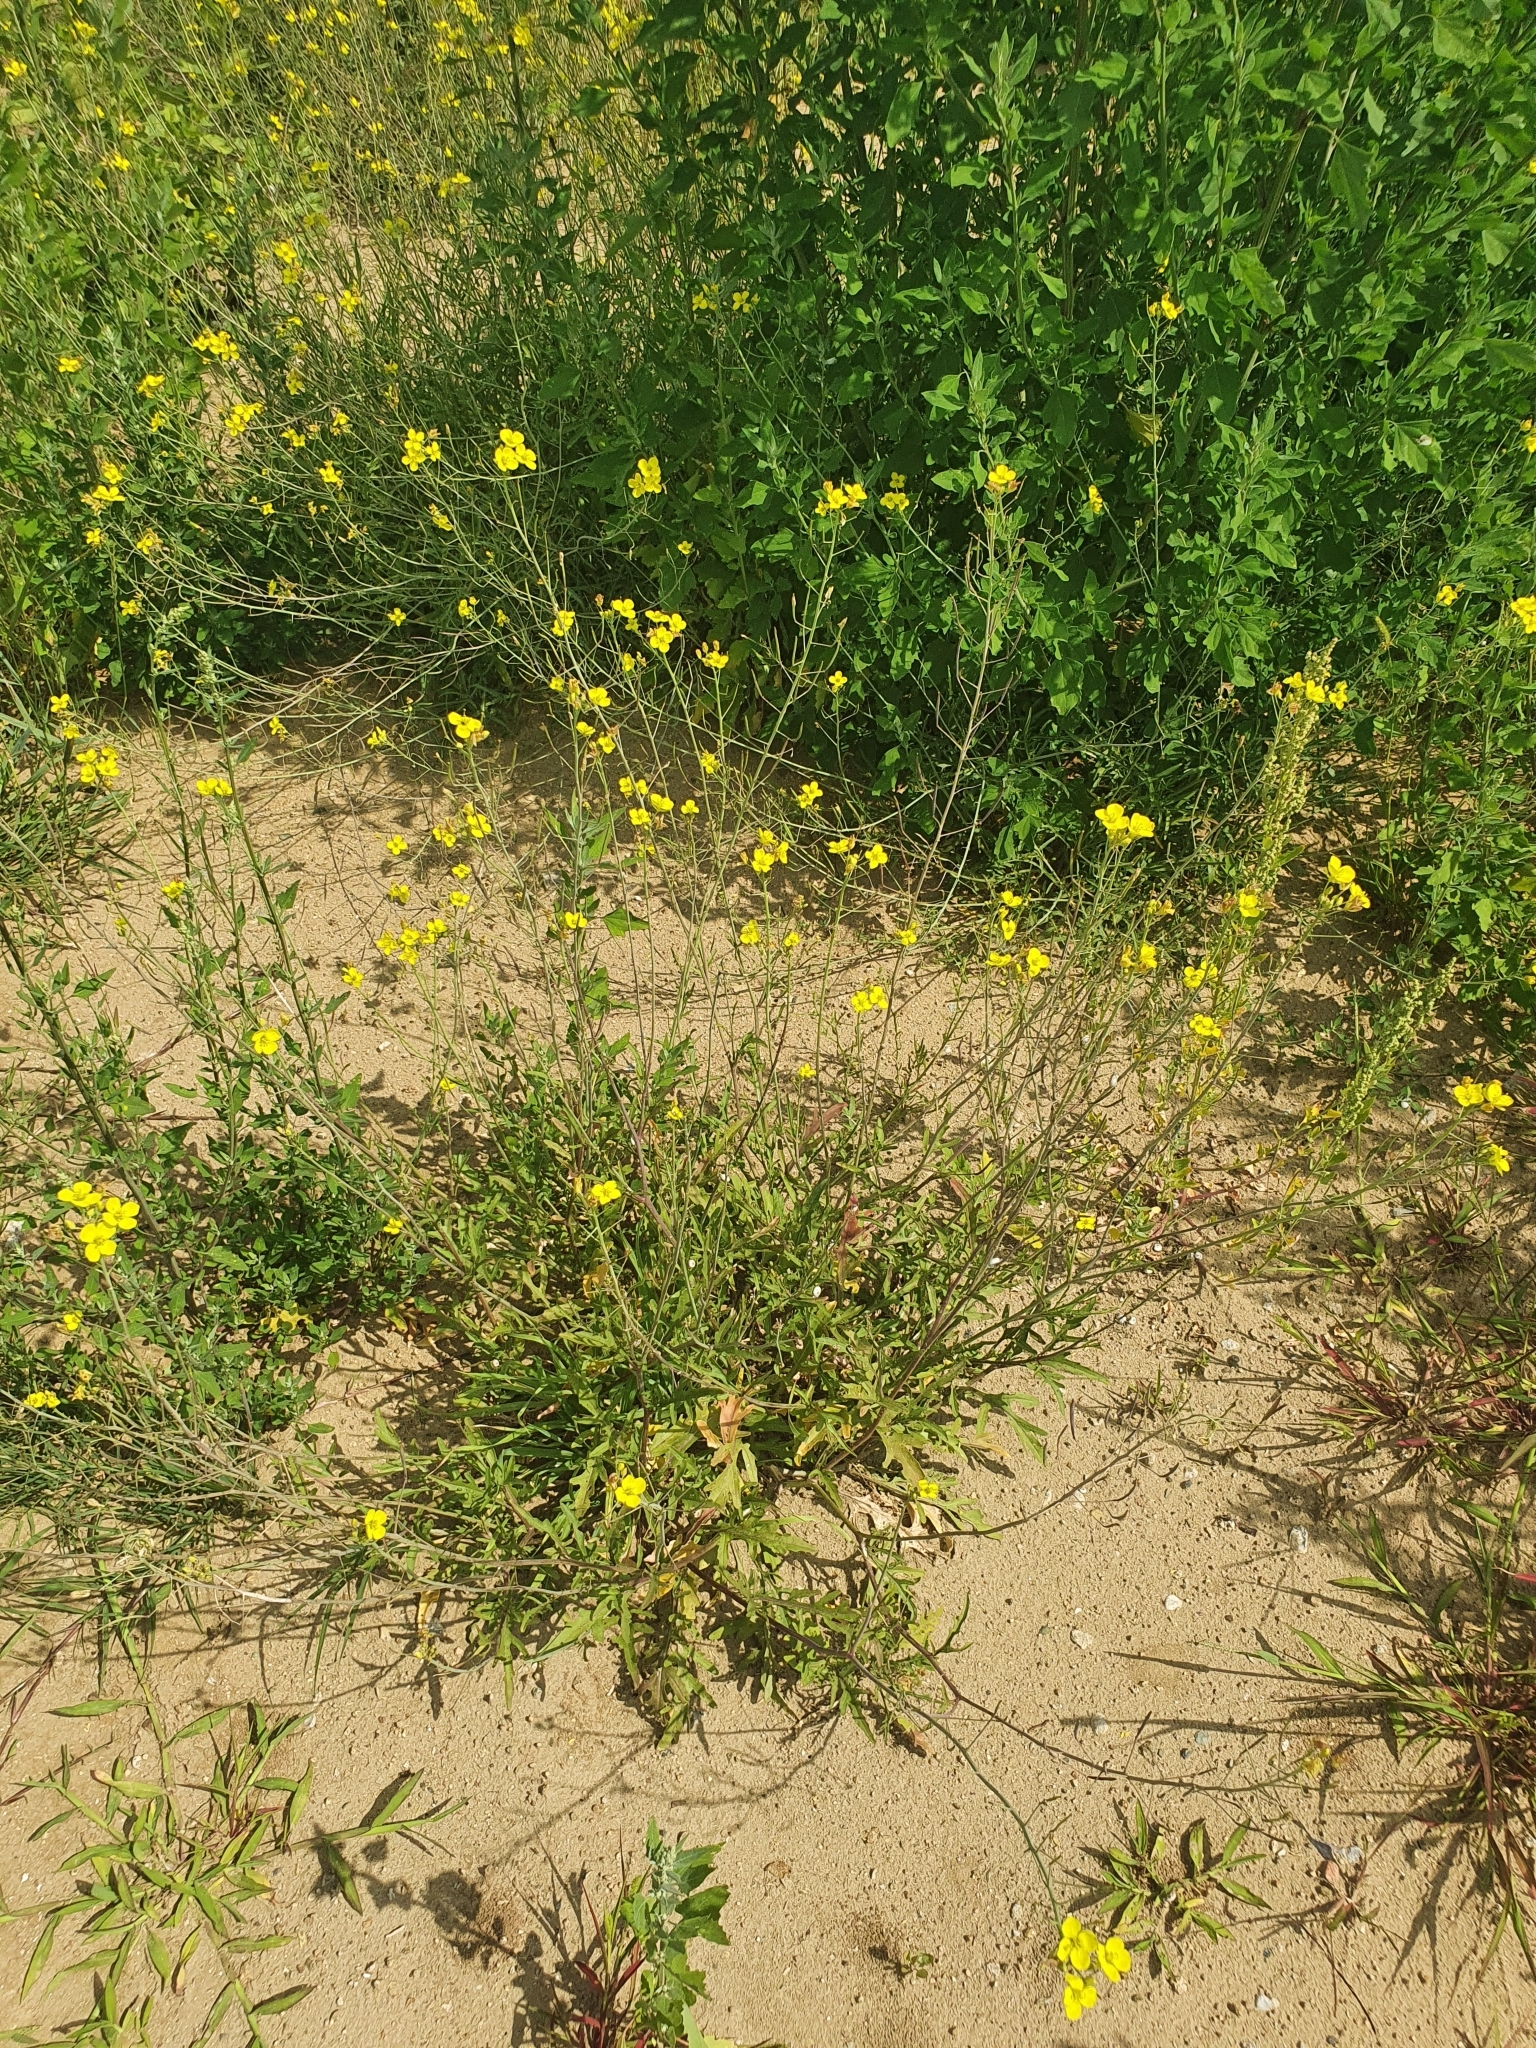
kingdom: Plantae
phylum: Tracheophyta
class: Magnoliopsida
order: Brassicales
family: Brassicaceae
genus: Diplotaxis
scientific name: Diplotaxis tenuifolia
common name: Perennial wall-rocket
